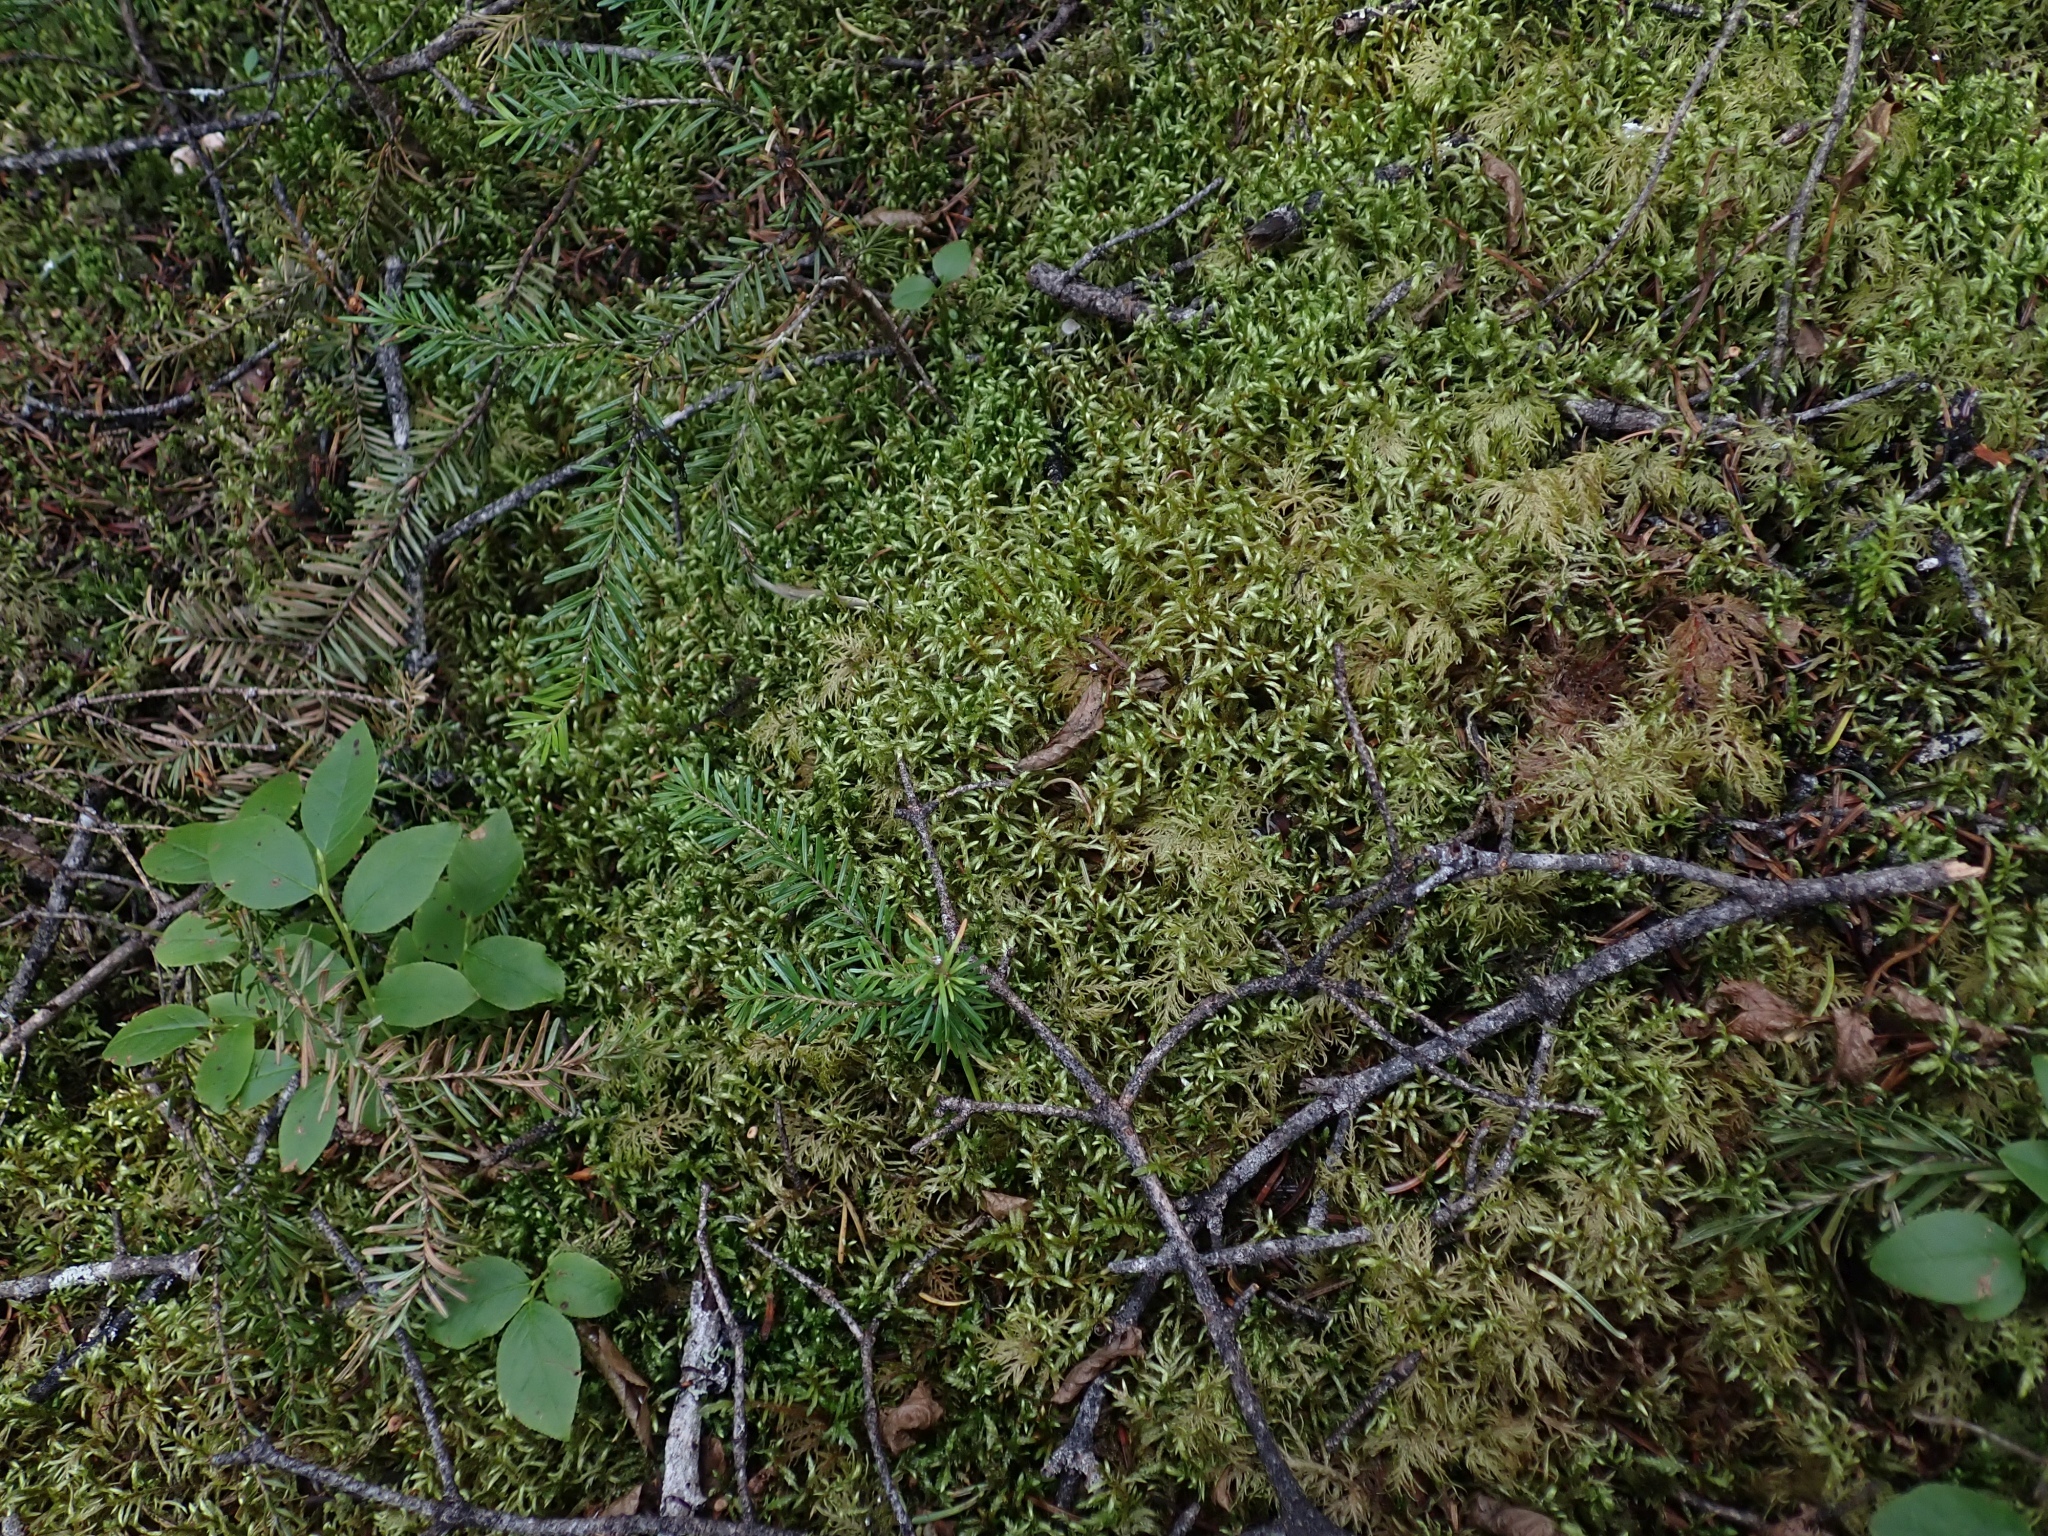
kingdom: Plantae
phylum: Bryophyta
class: Bryopsida
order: Hypnales
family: Hylocomiaceae
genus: Pleurozium
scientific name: Pleurozium schreberi
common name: Red-stemmed feather moss
